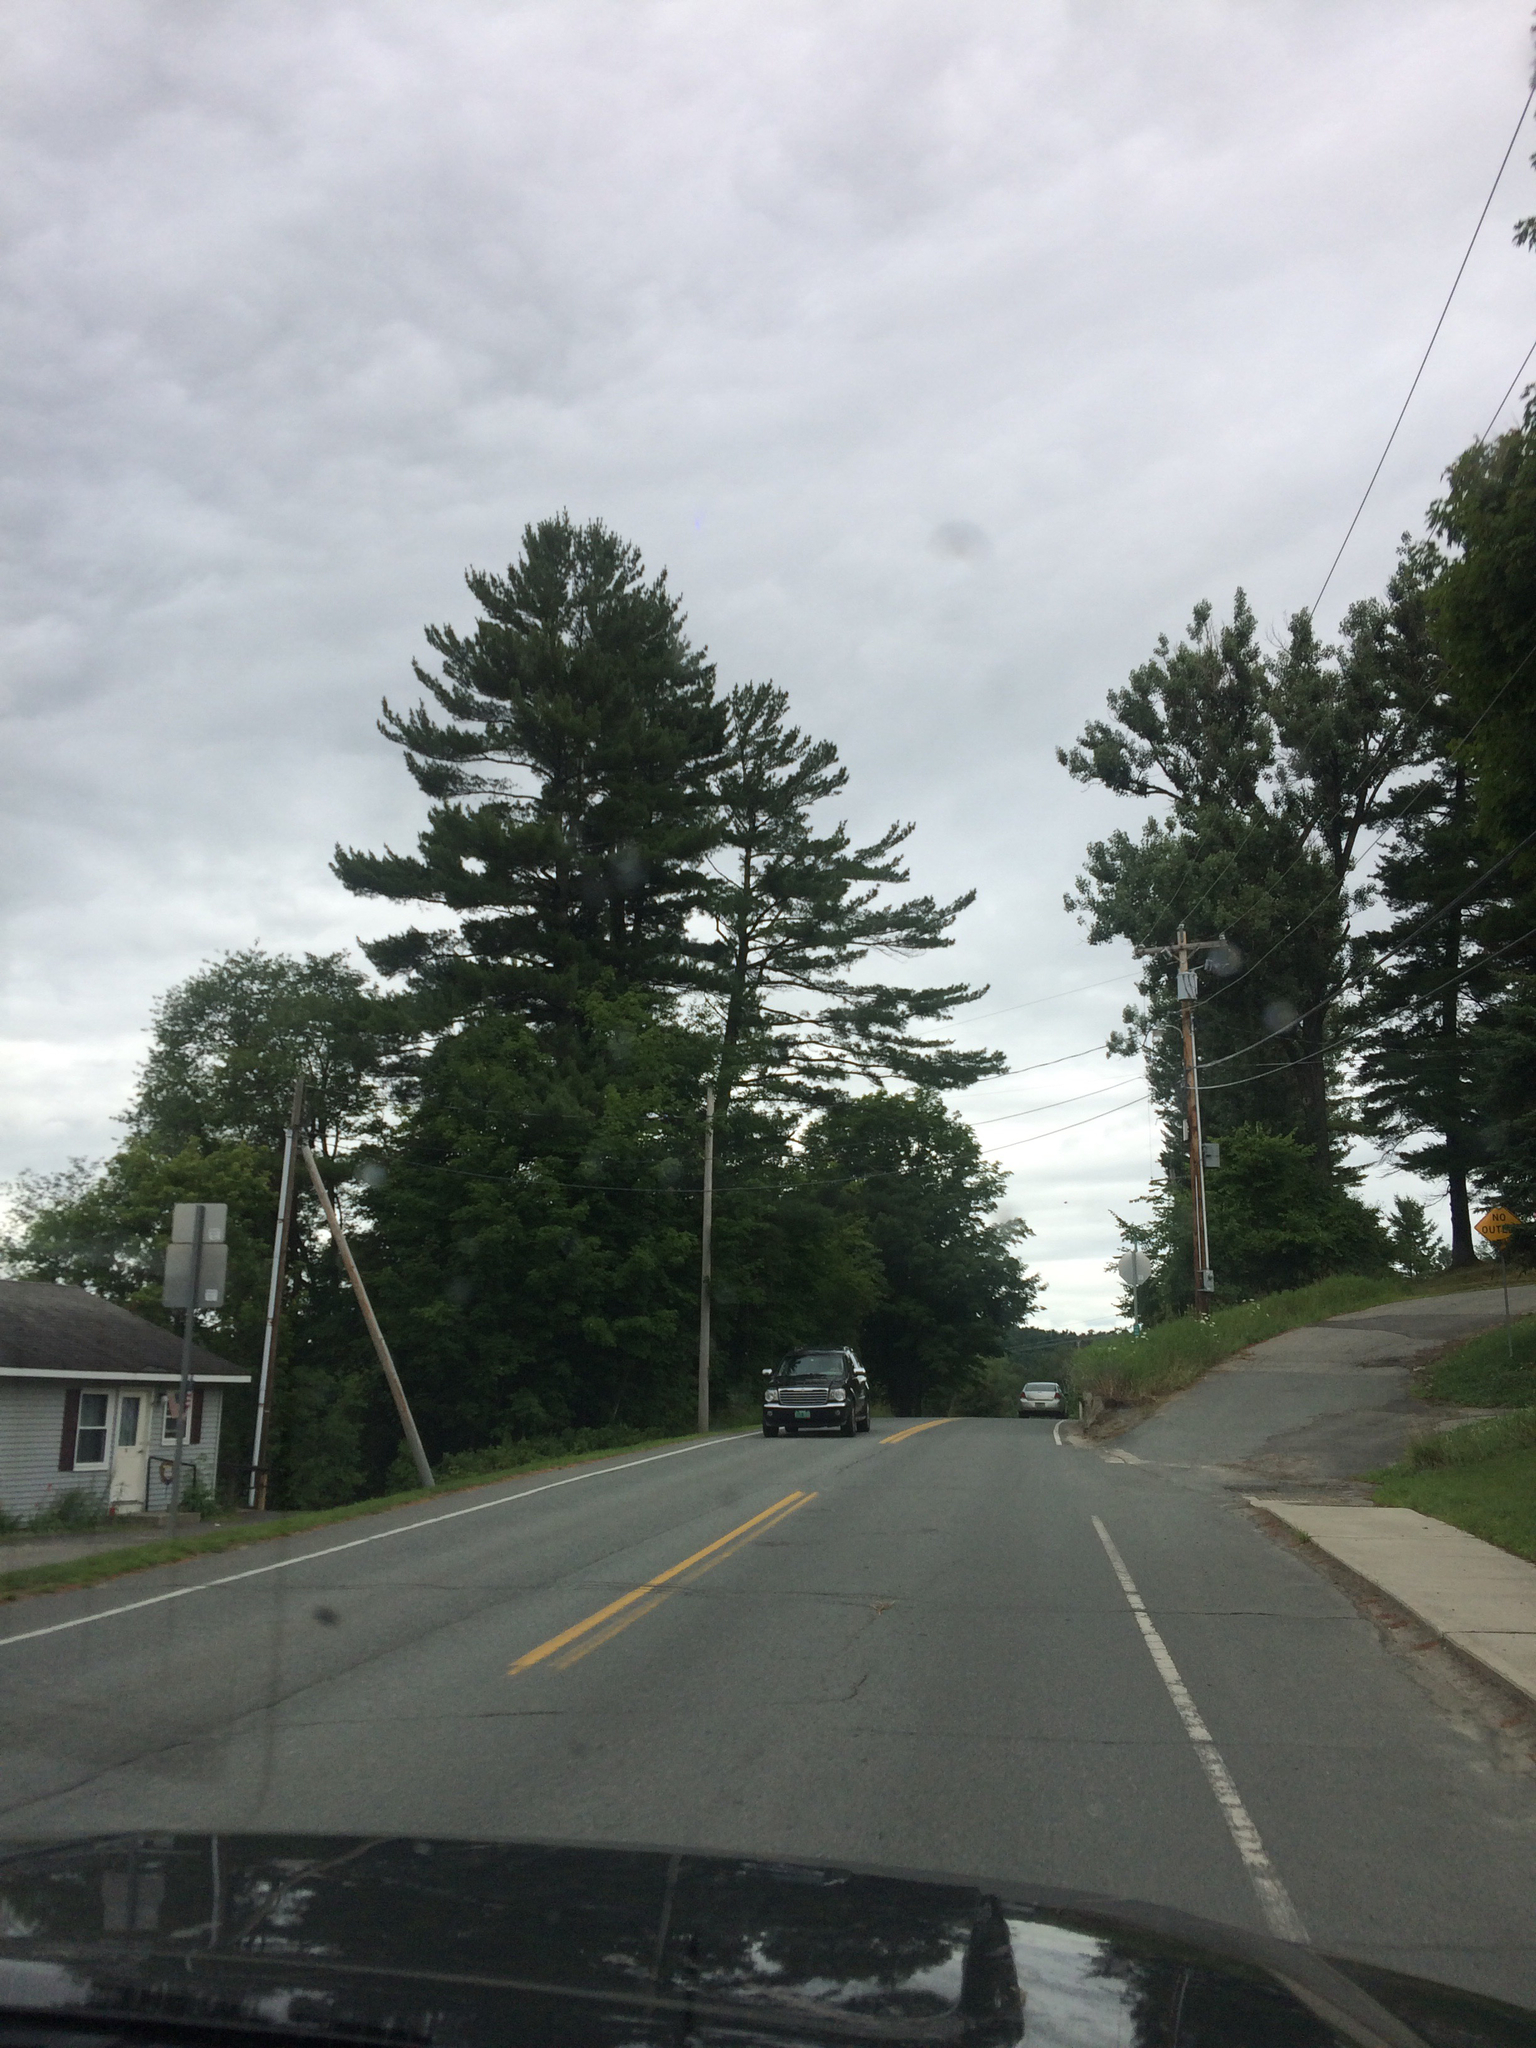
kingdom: Plantae
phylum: Tracheophyta
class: Pinopsida
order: Pinales
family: Pinaceae
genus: Pinus
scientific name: Pinus strobus
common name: Weymouth pine
